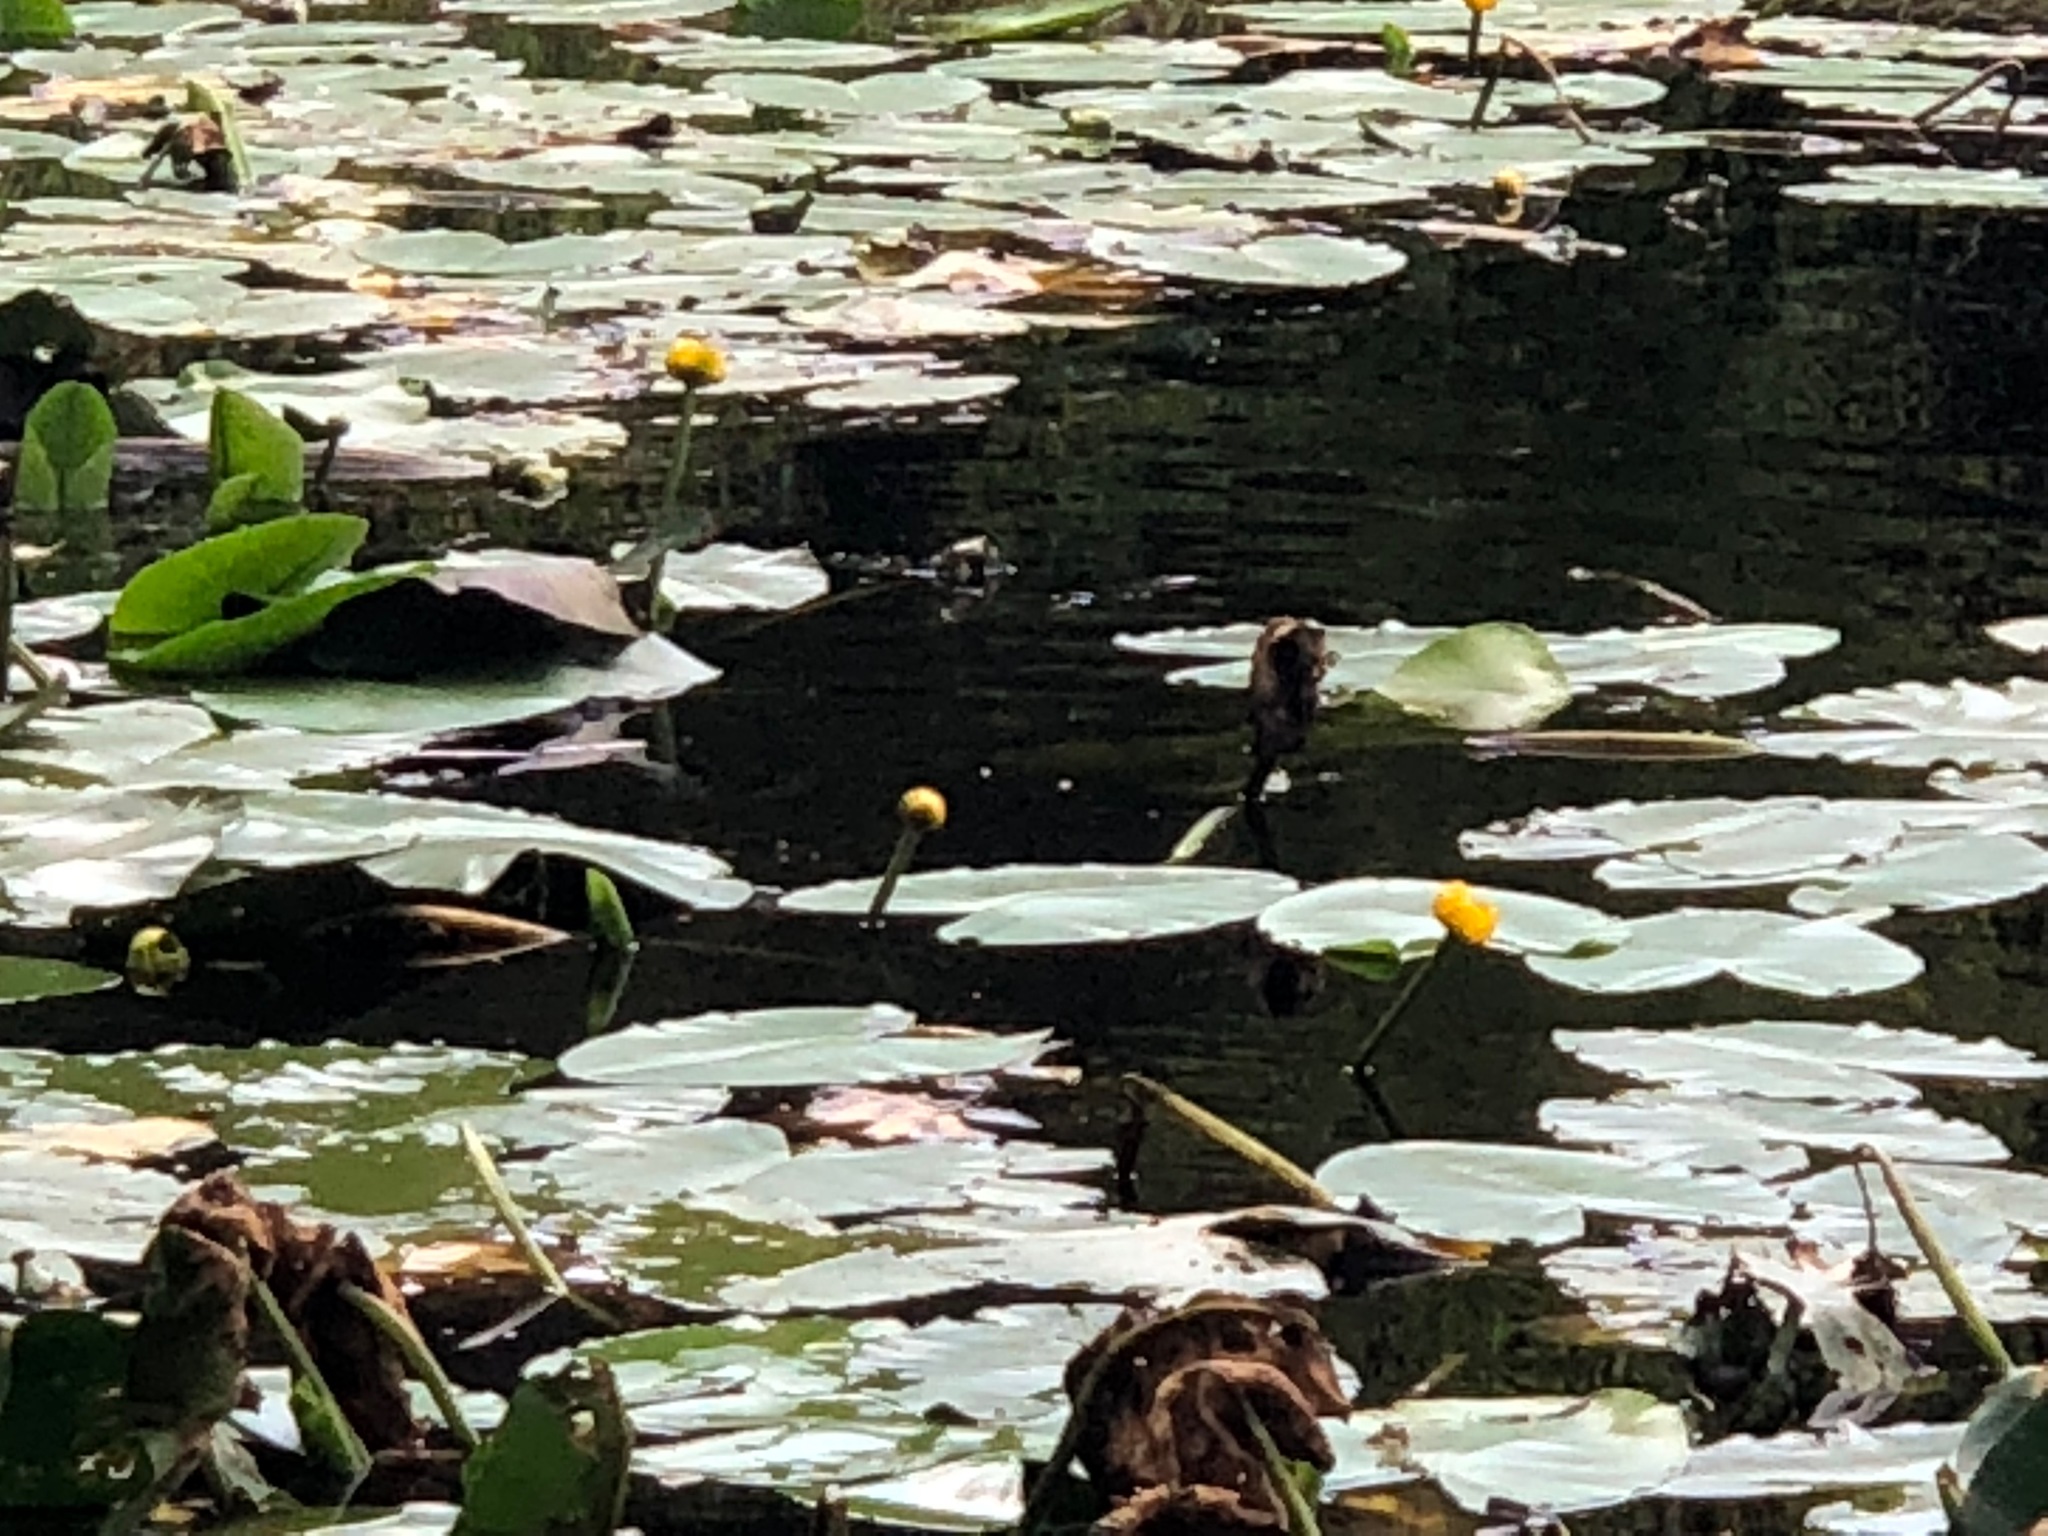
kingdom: Plantae
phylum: Tracheophyta
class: Magnoliopsida
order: Nymphaeales
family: Nymphaeaceae
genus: Nuphar
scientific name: Nuphar lutea
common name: Yellow water-lily
